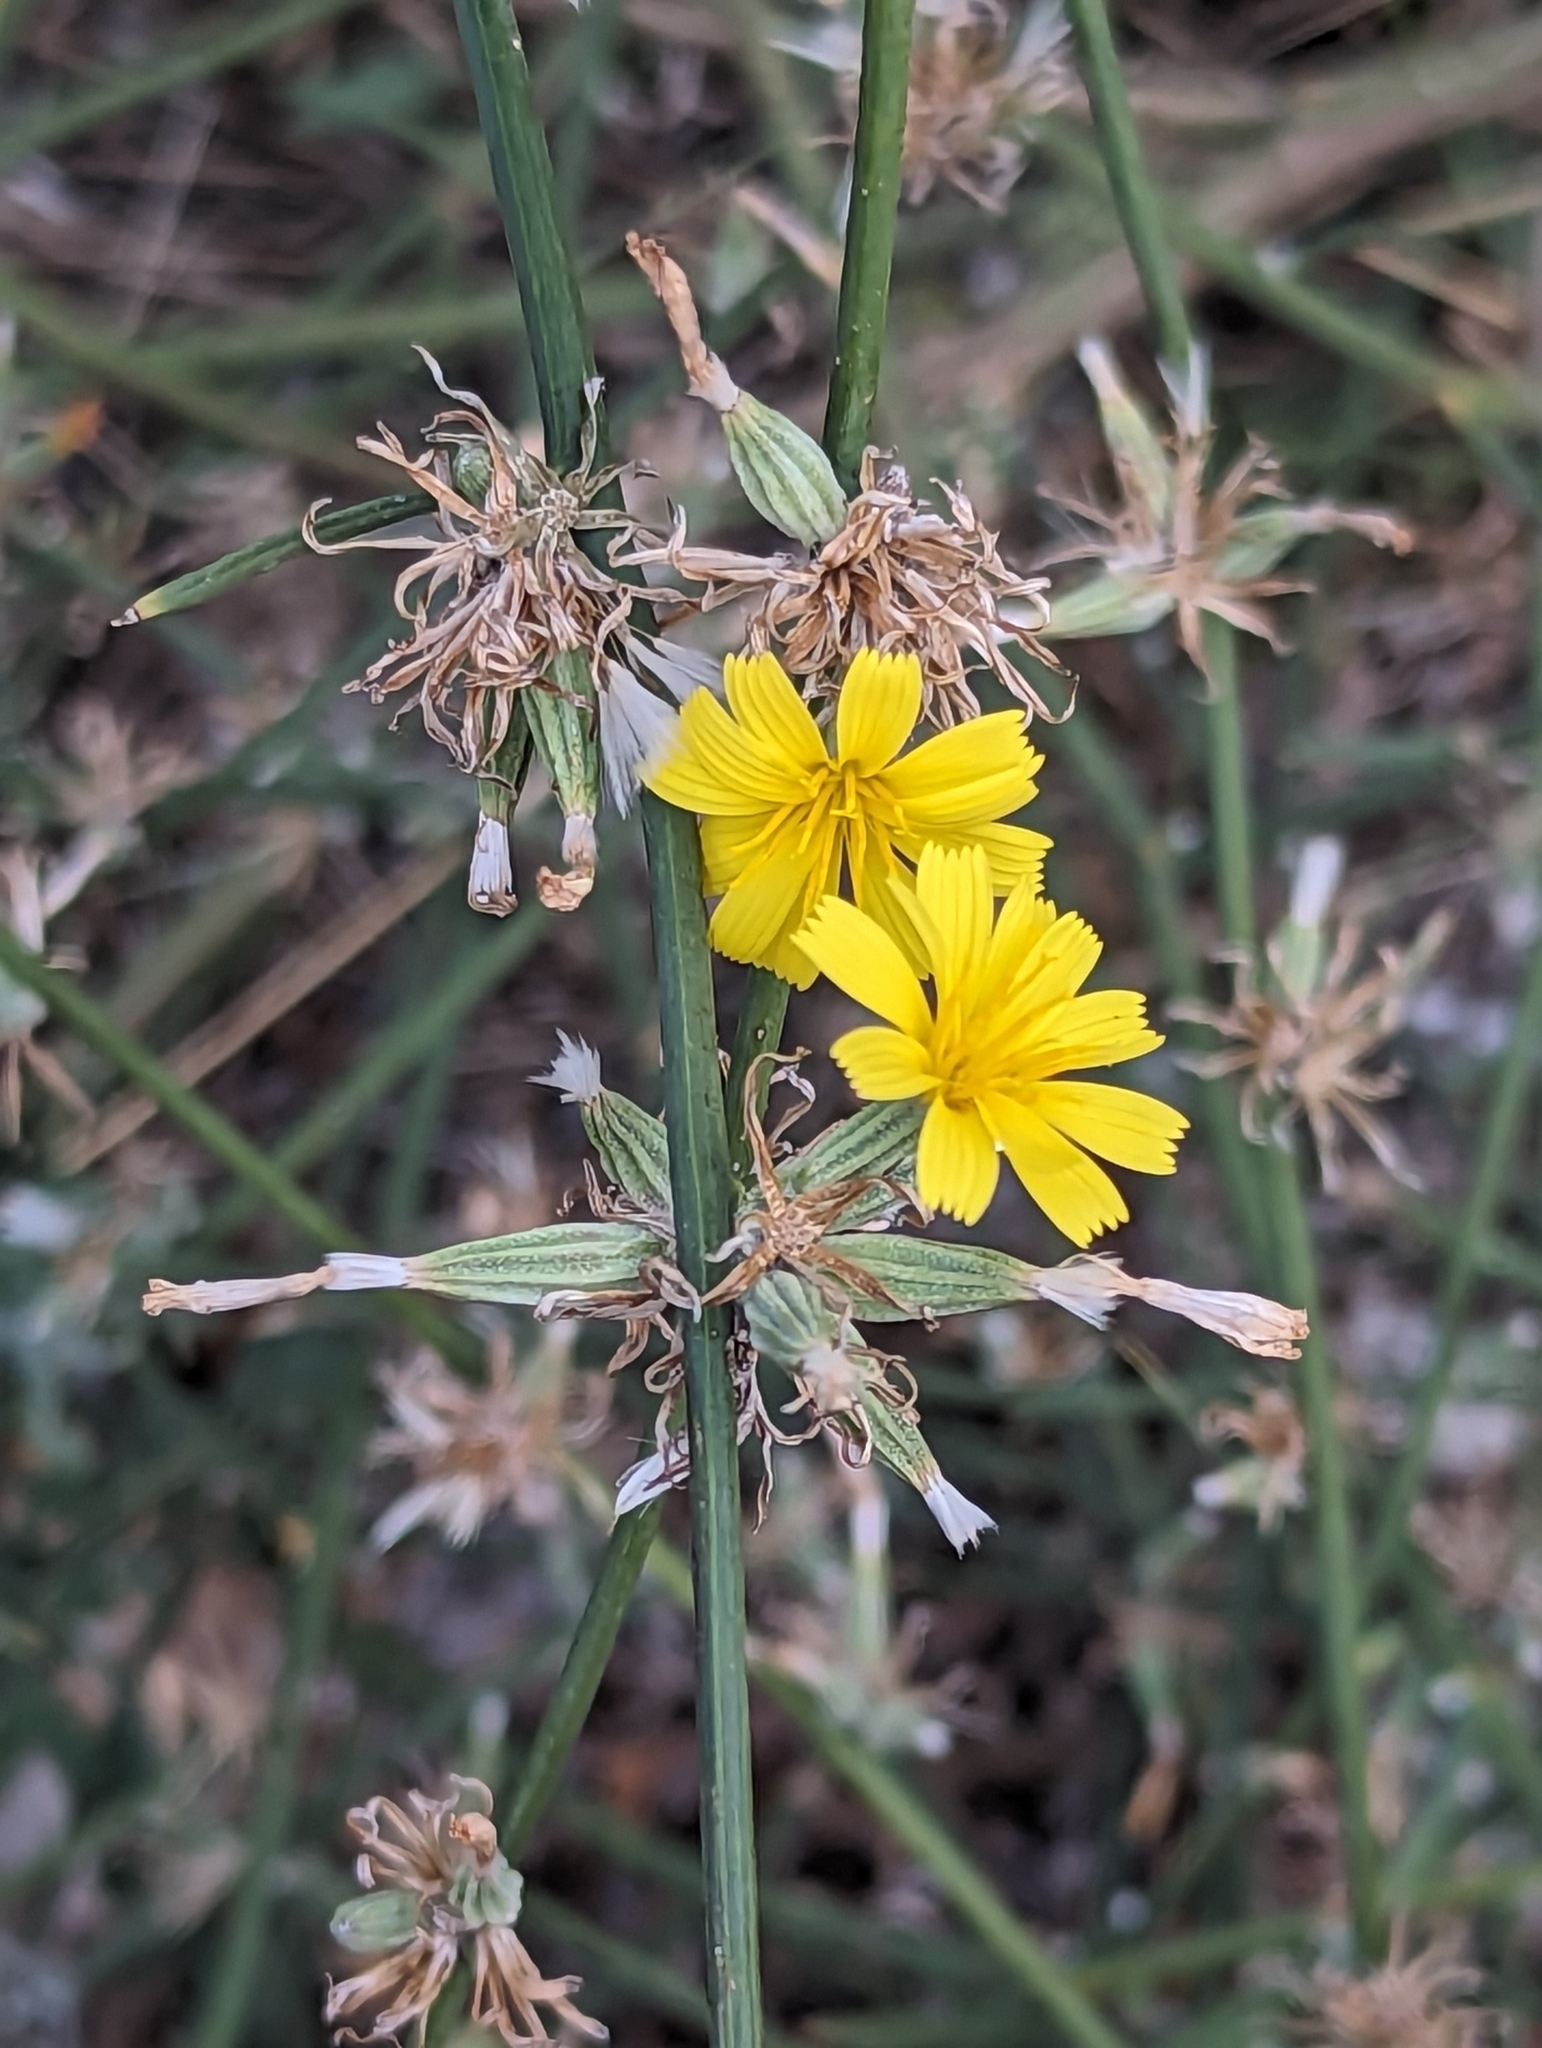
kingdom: Plantae
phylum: Tracheophyta
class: Magnoliopsida
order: Asterales
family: Asteraceae
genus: Chondrilla
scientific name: Chondrilla juncea
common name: Skeleton weed
